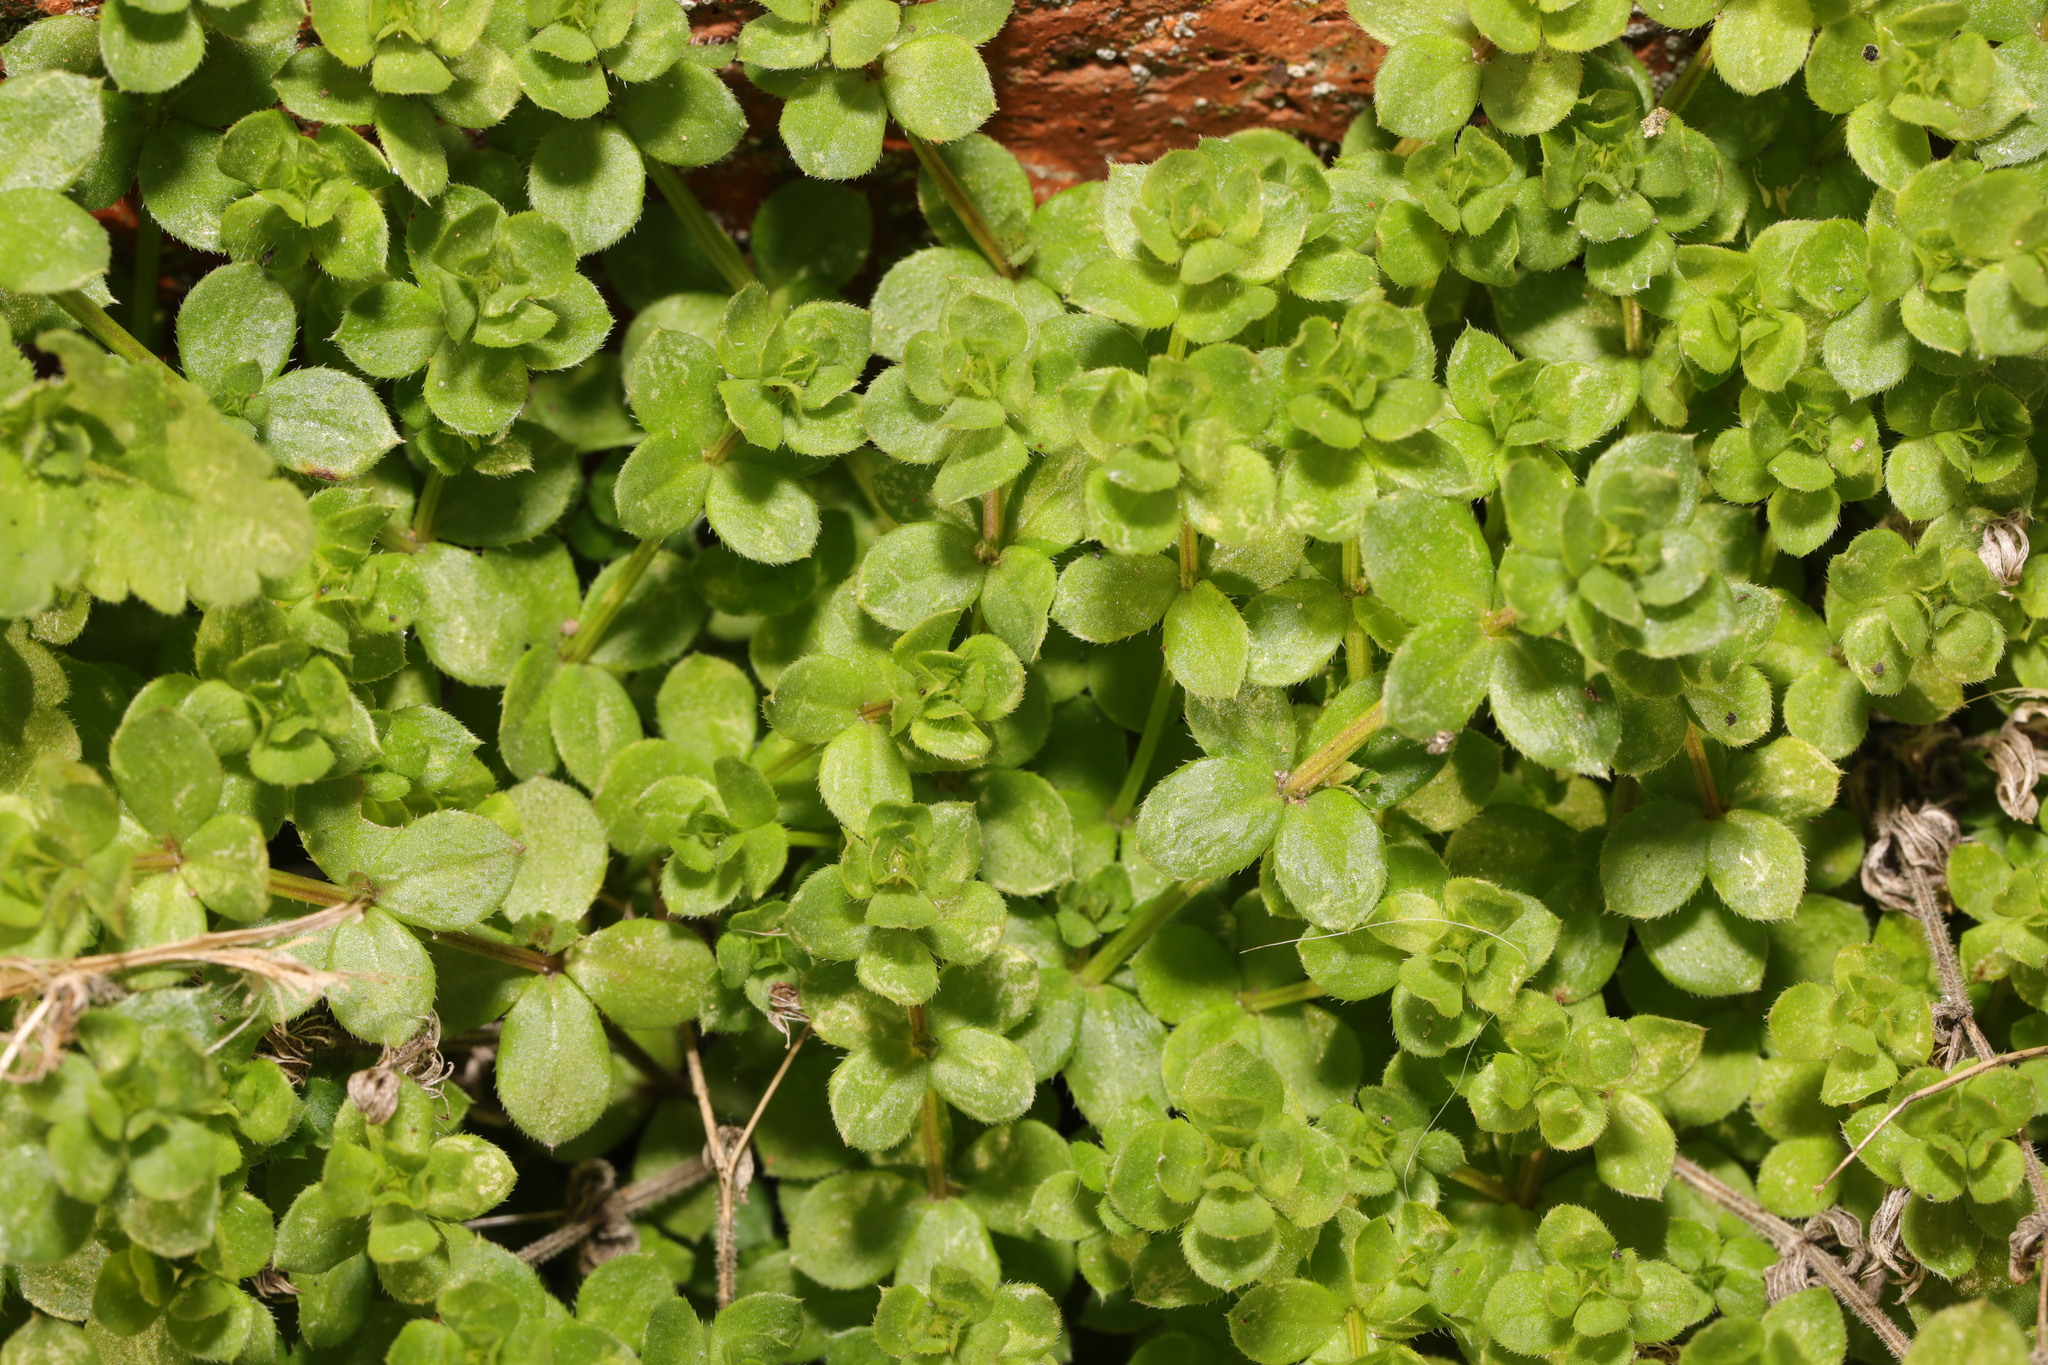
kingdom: Plantae
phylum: Tracheophyta
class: Magnoliopsida
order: Caryophyllales
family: Caryophyllaceae
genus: Cerastium
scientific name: Cerastium glomeratum
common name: Sticky chickweed
